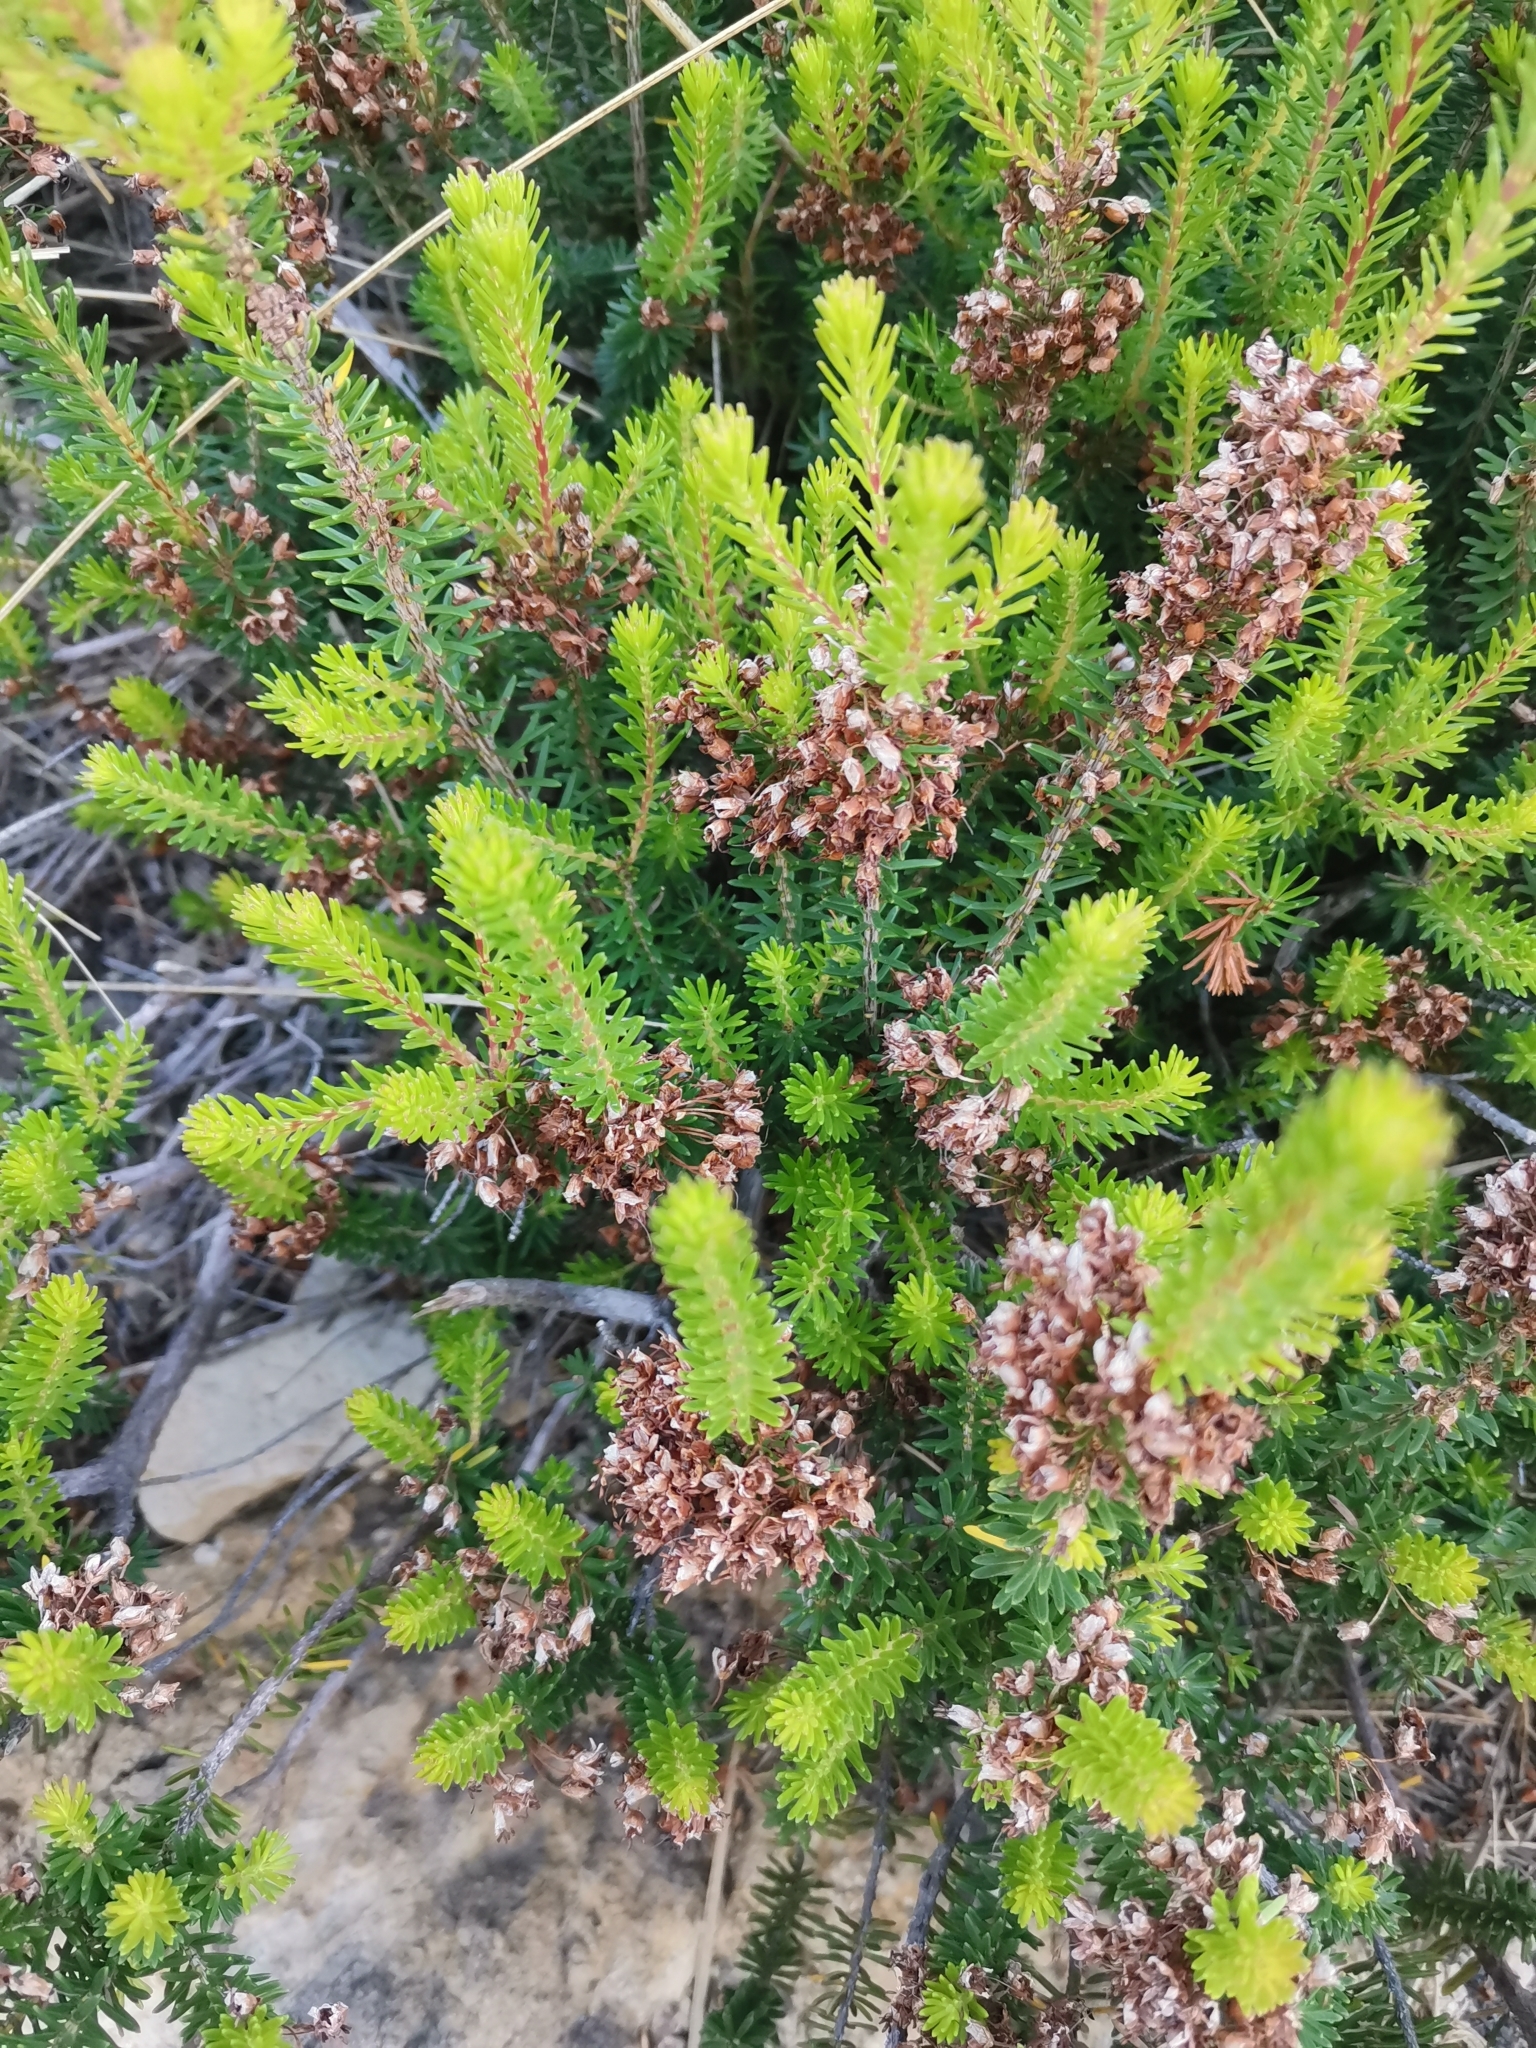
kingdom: Plantae
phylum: Tracheophyta
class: Magnoliopsida
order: Ericales
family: Ericaceae
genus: Erica
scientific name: Erica multiflora
